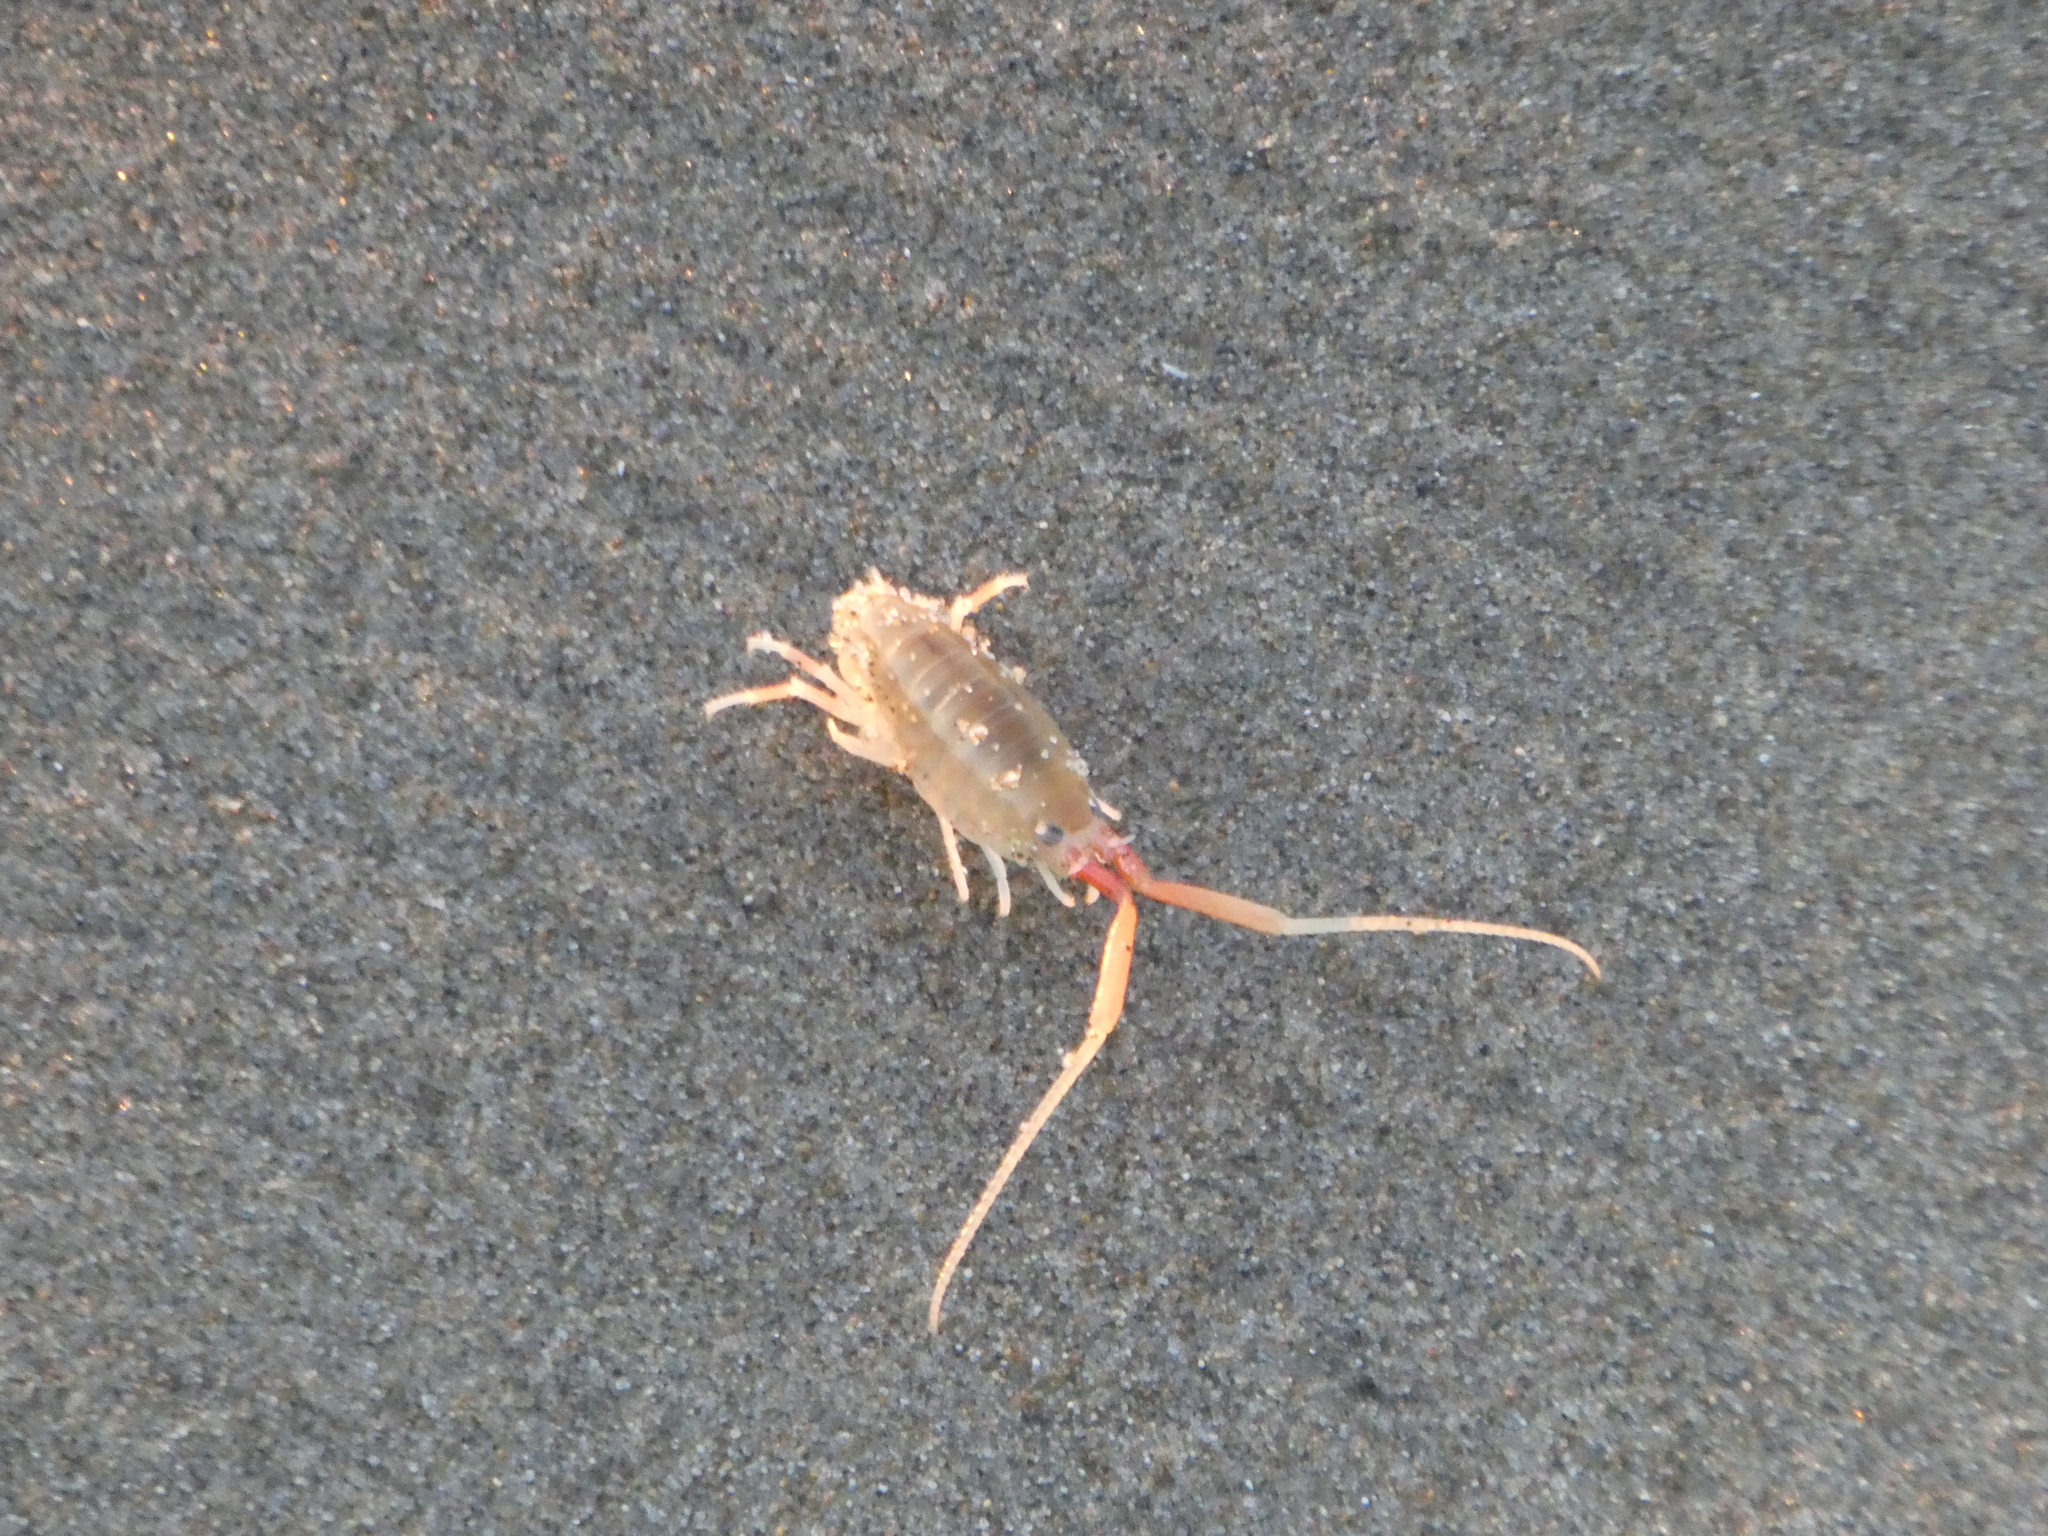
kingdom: Animalia
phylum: Arthropoda
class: Malacostraca
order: Amphipoda
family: Talitridae
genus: Megalorchestia
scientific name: Megalorchestia californiana
